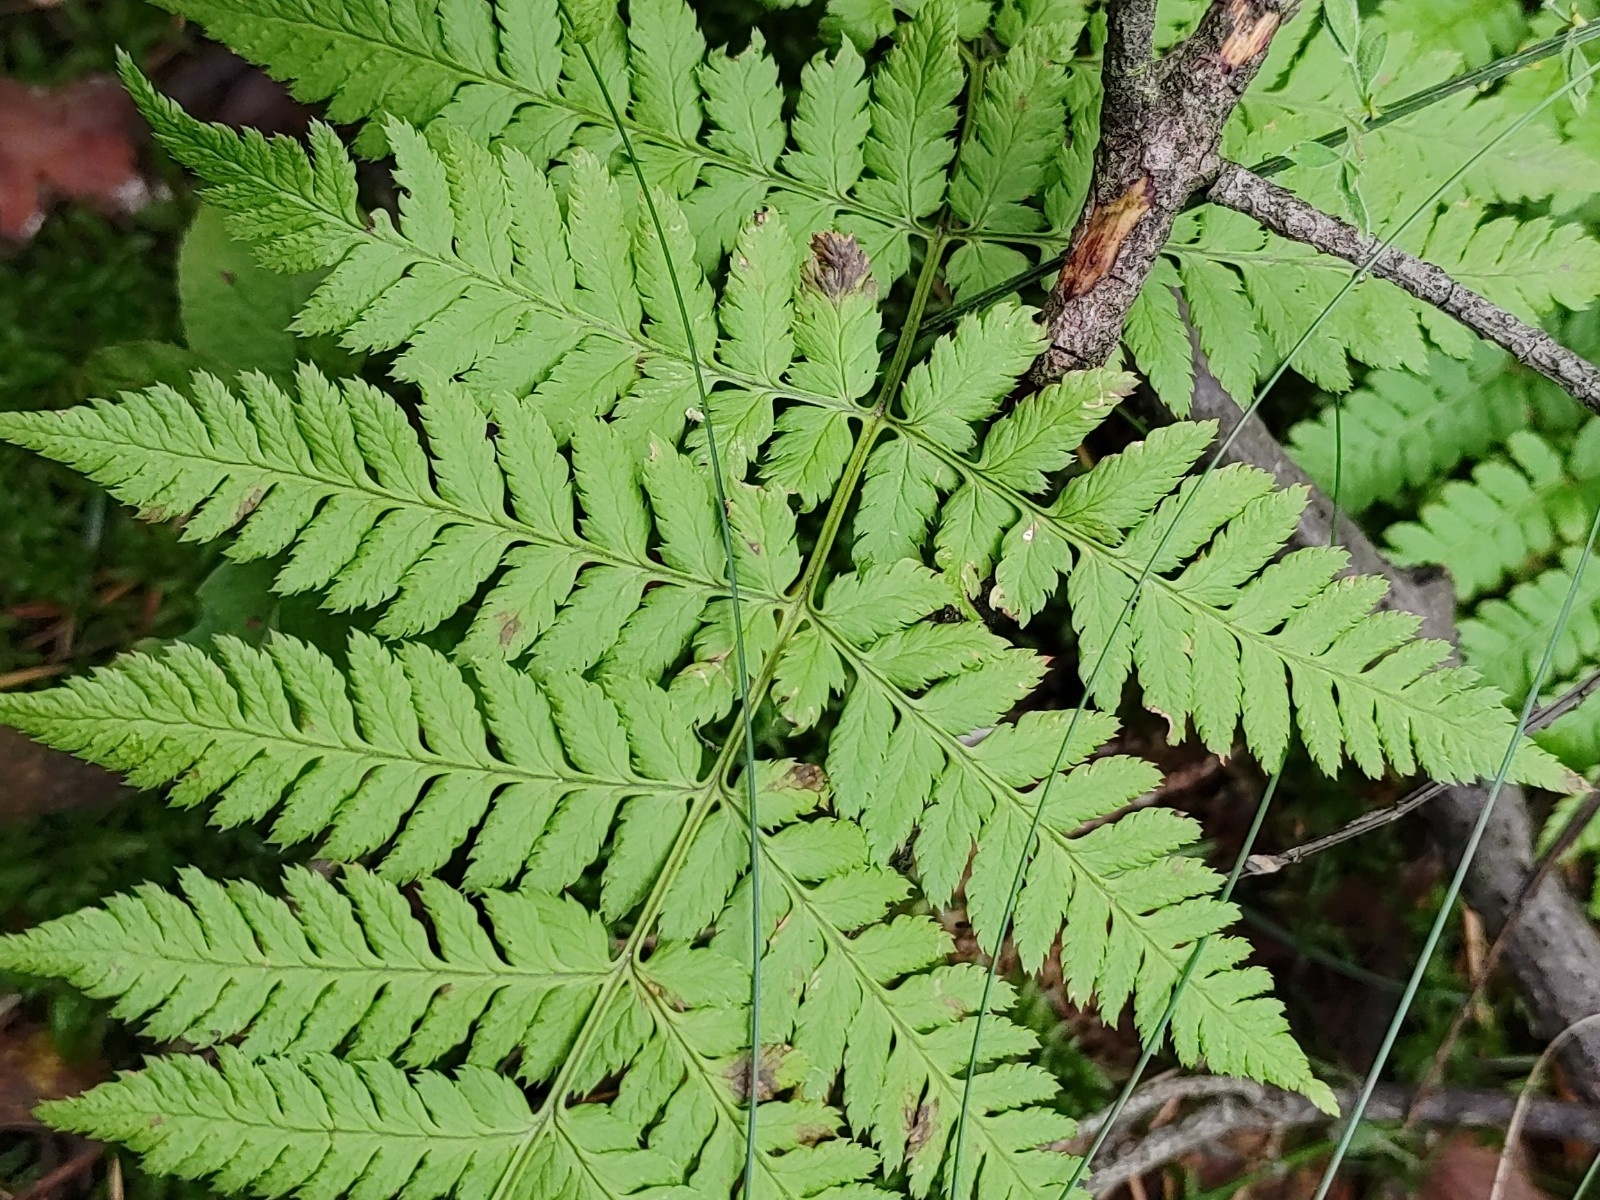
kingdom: Plantae
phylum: Tracheophyta
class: Polypodiopsida
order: Polypodiales
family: Dryopteridaceae
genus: Dryopteris
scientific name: Dryopteris carthusiana
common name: Narrow buckler-fern
